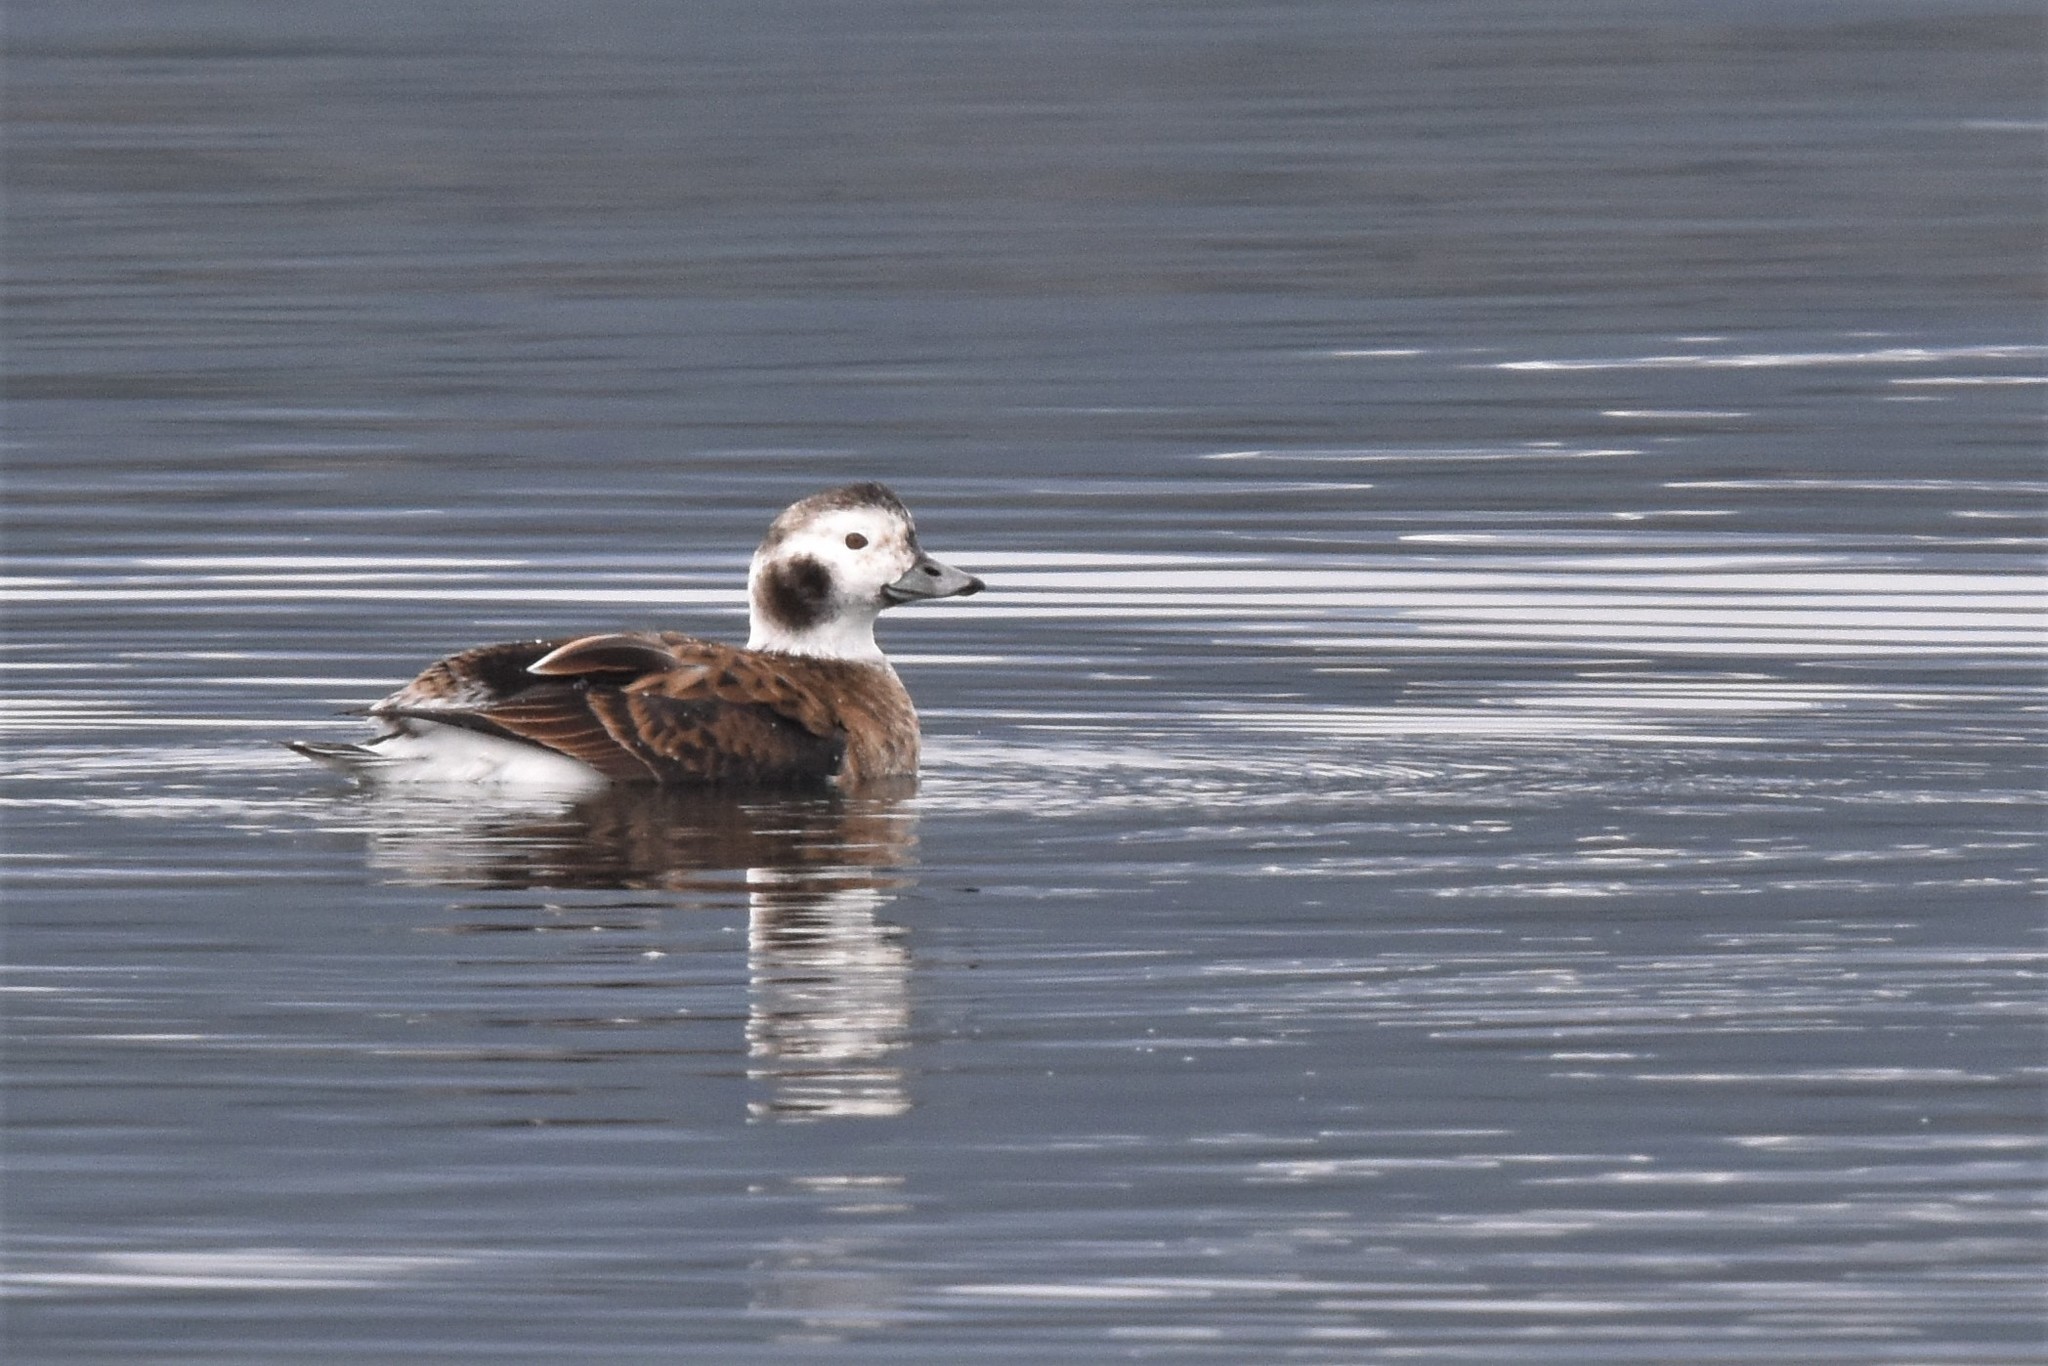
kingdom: Animalia
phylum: Chordata
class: Aves
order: Anseriformes
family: Anatidae
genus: Clangula
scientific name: Clangula hyemalis
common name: Long-tailed duck
